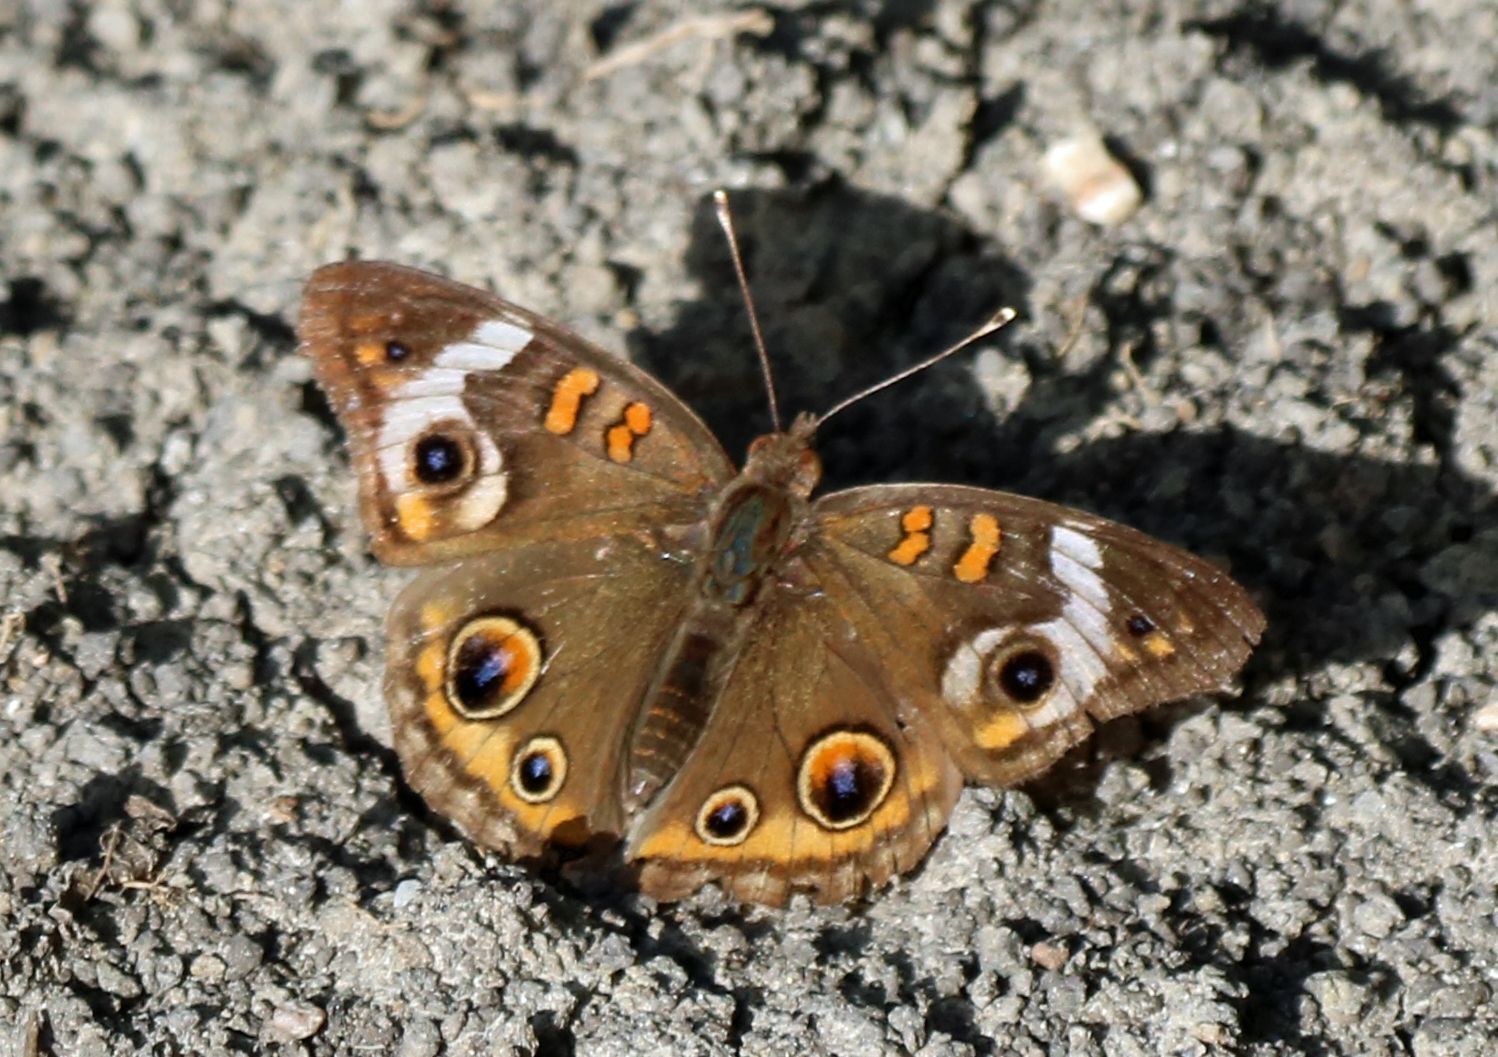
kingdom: Animalia
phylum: Arthropoda
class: Insecta
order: Lepidoptera
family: Nymphalidae
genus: Junonia
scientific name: Junonia coenia
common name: Common buckeye
